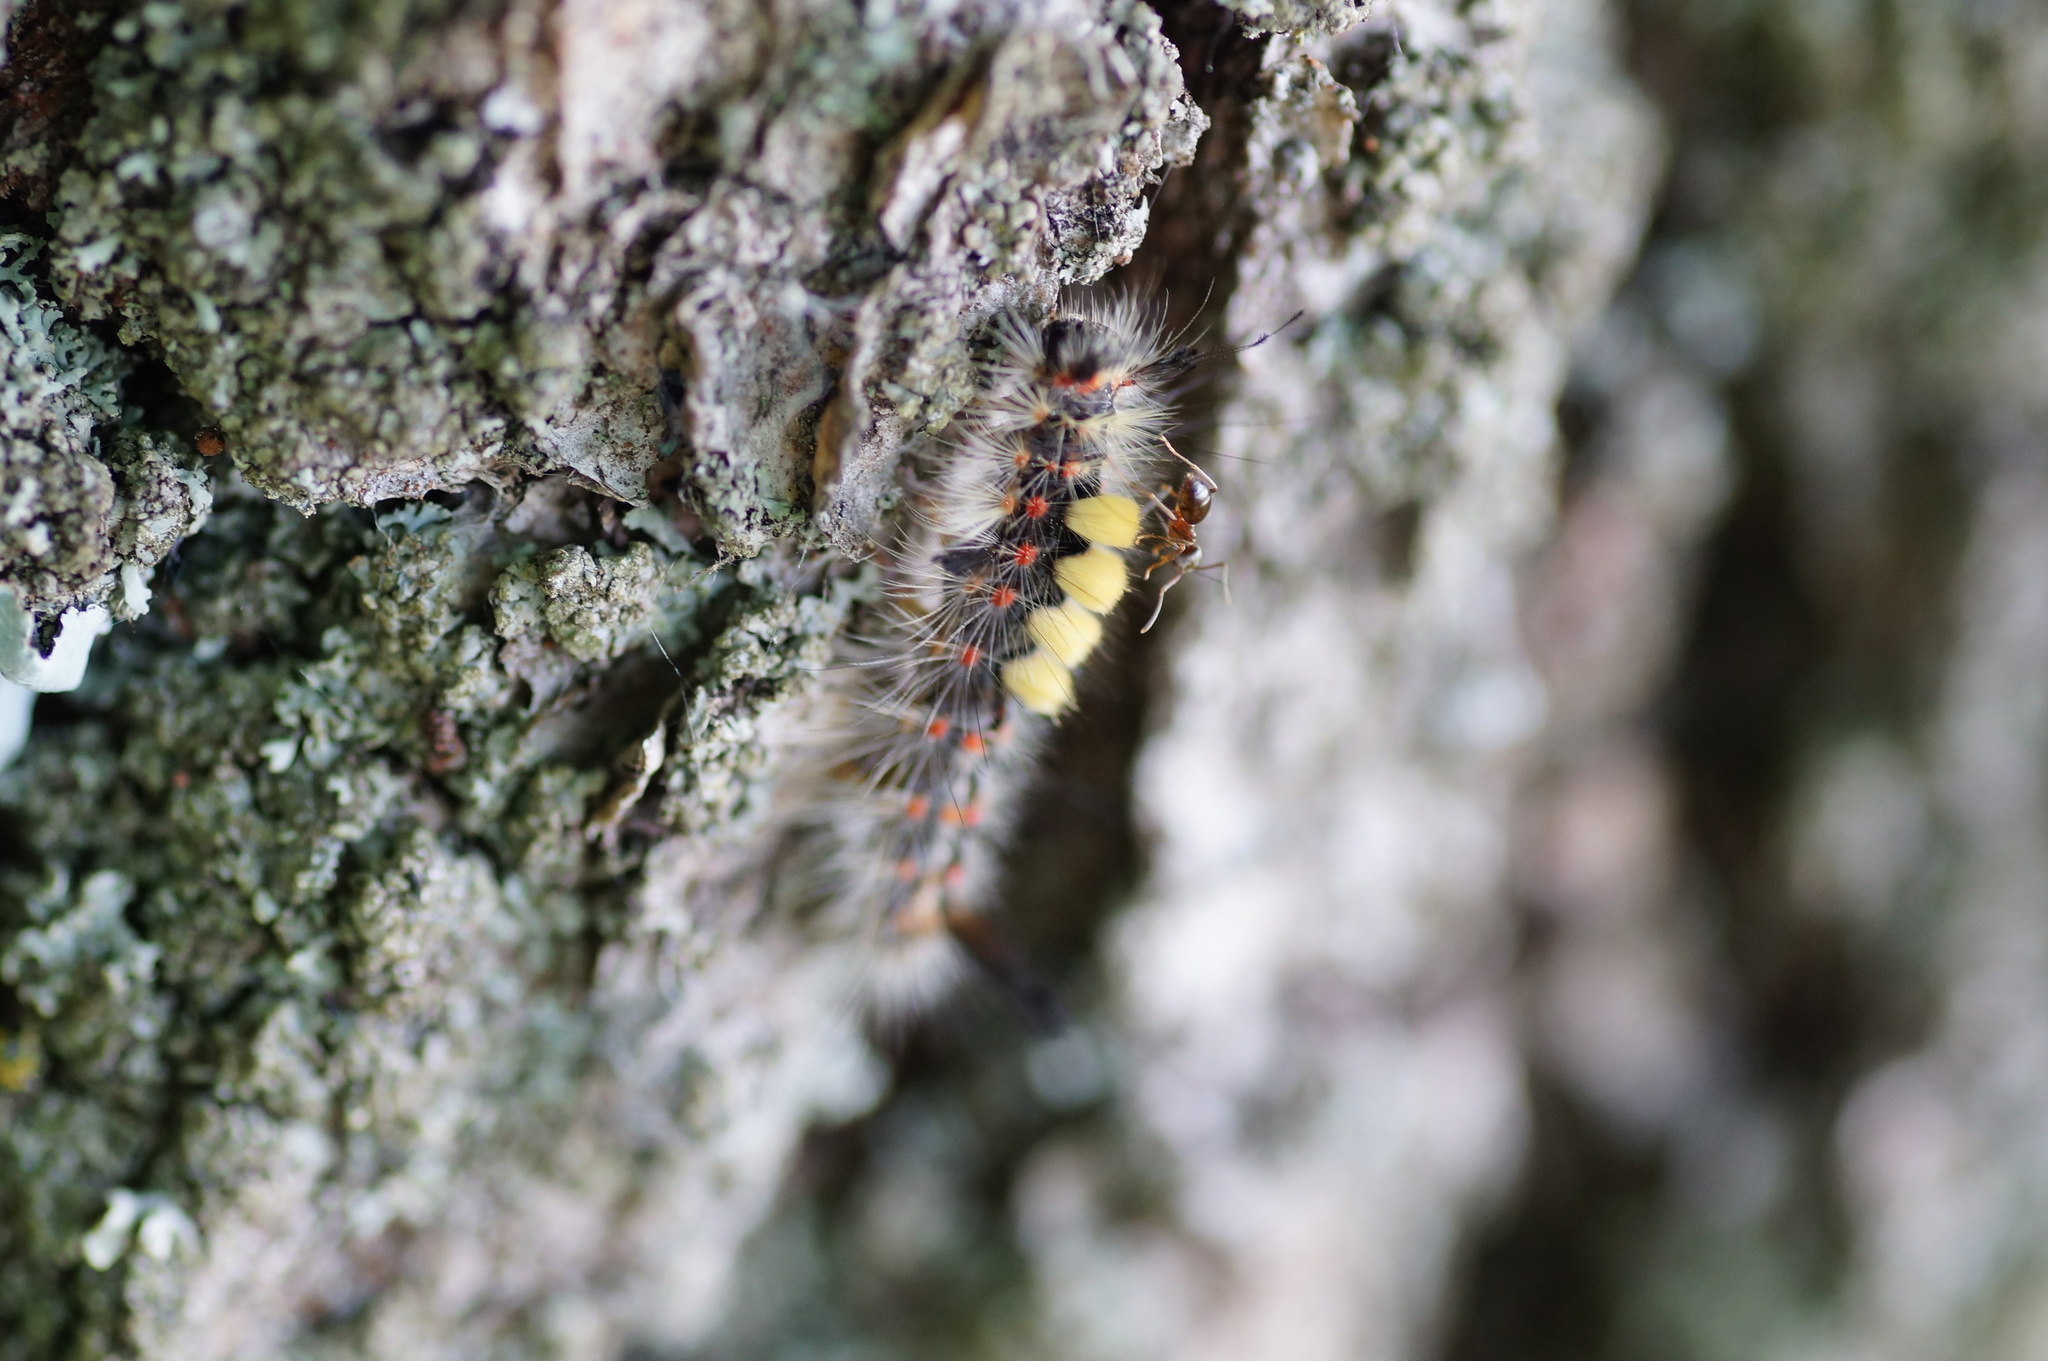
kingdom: Animalia
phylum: Arthropoda
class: Insecta
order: Lepidoptera
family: Erebidae
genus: Orgyia
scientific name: Orgyia antiqua
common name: Vapourer
